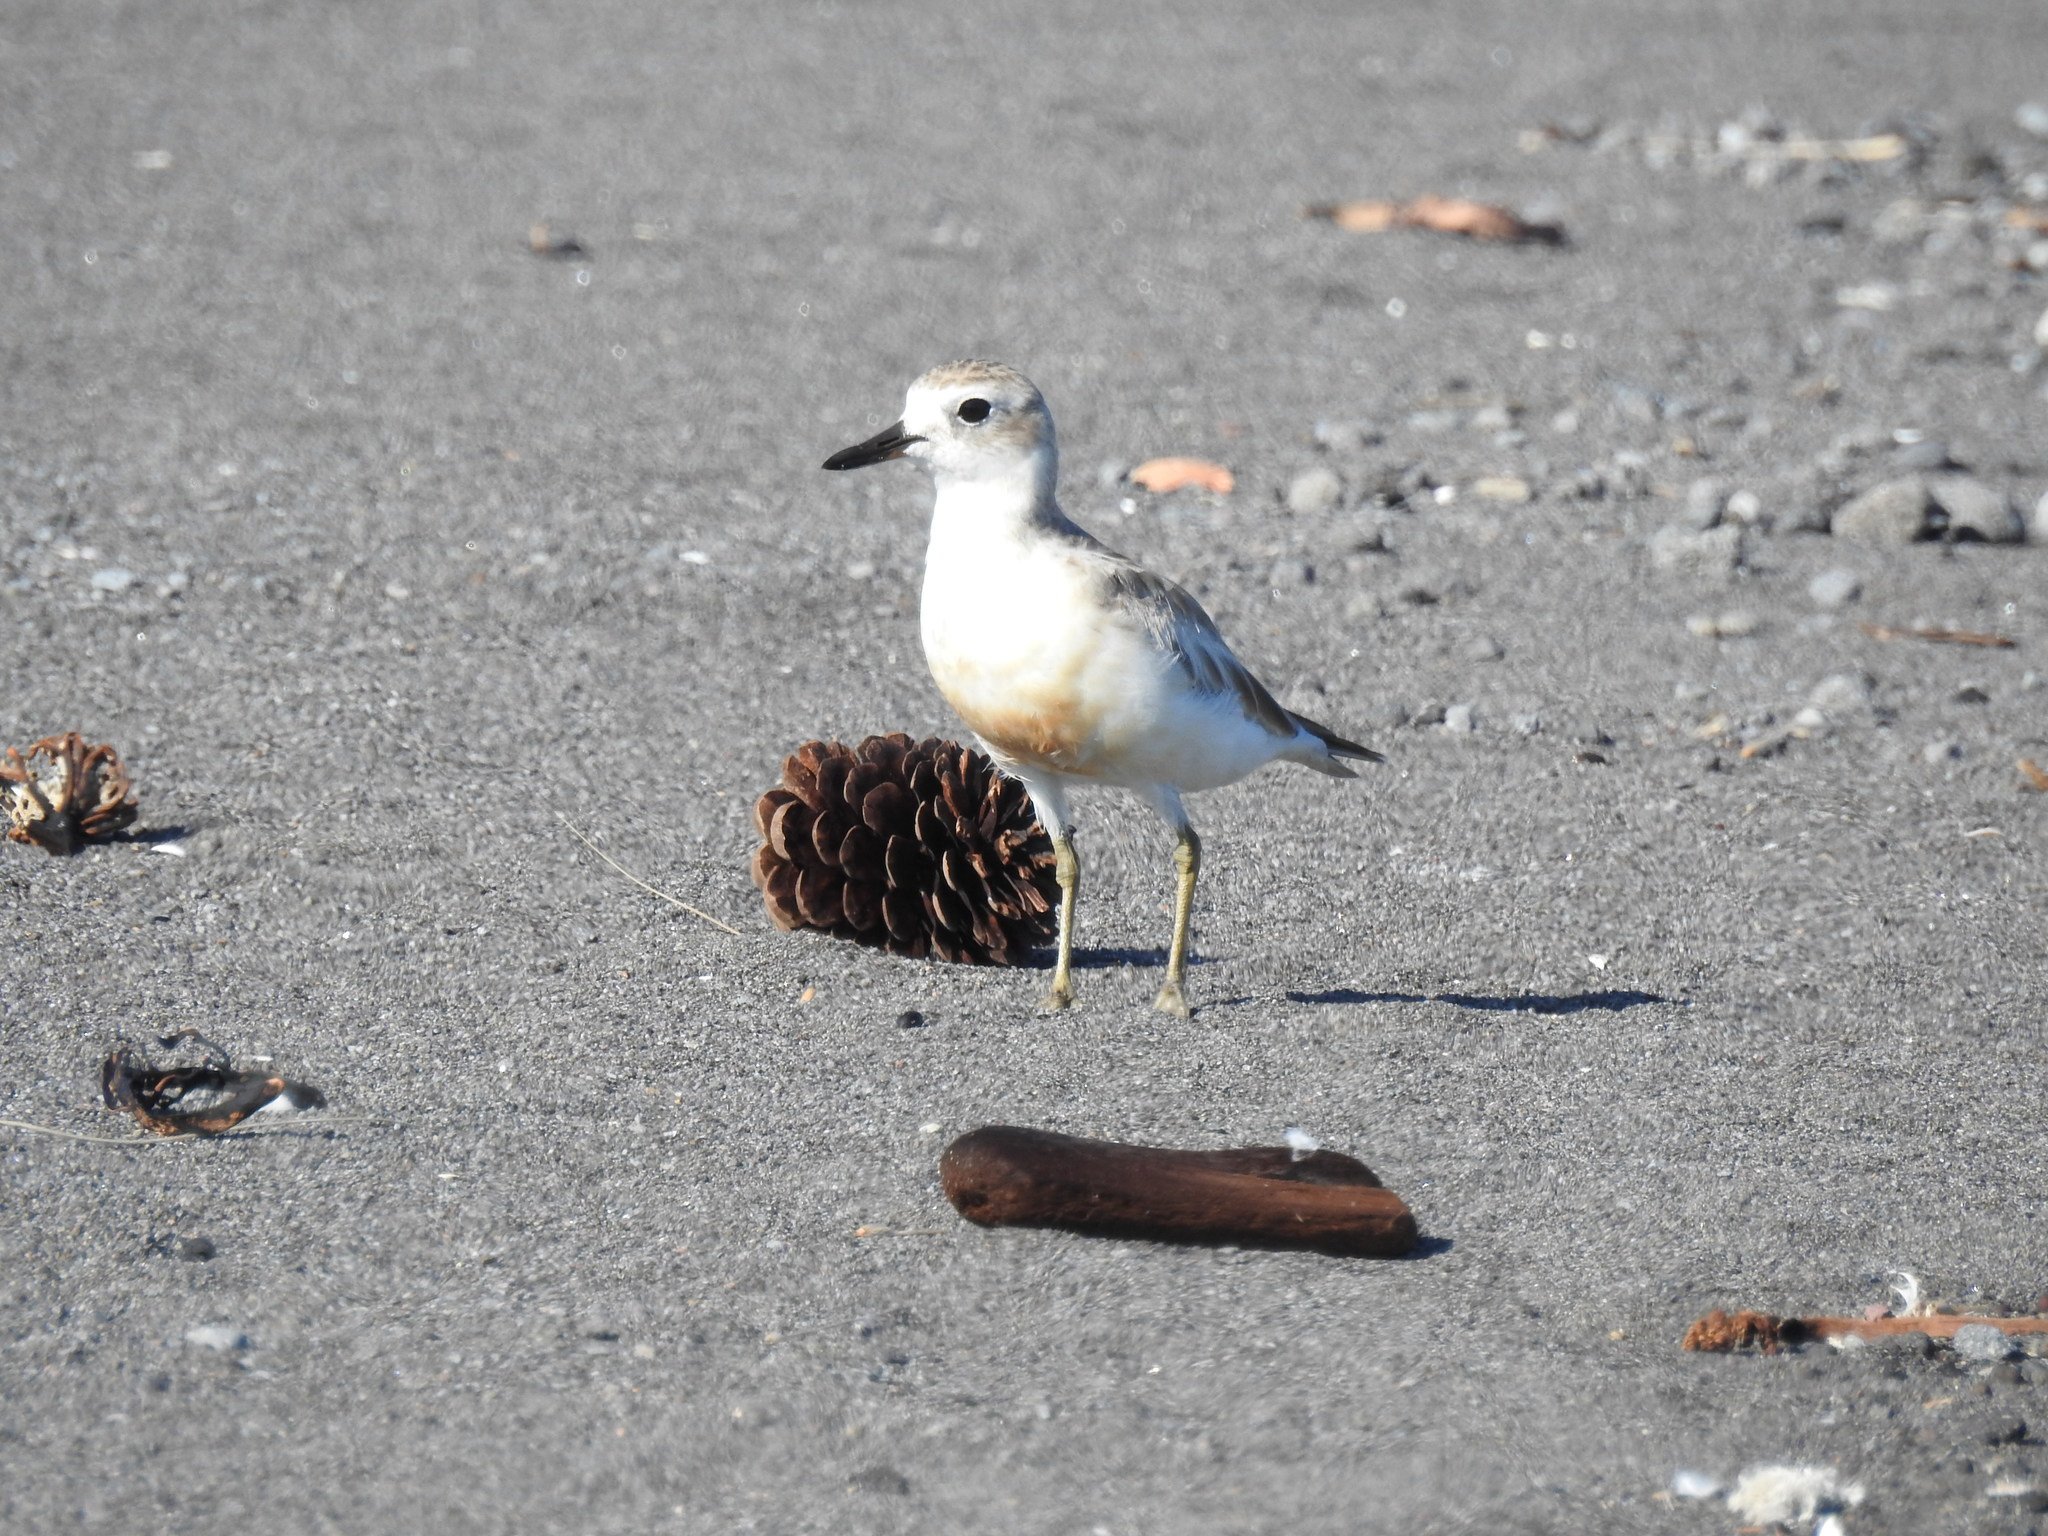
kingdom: Animalia
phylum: Chordata
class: Aves
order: Charadriiformes
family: Charadriidae
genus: Anarhynchus
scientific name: Anarhynchus
